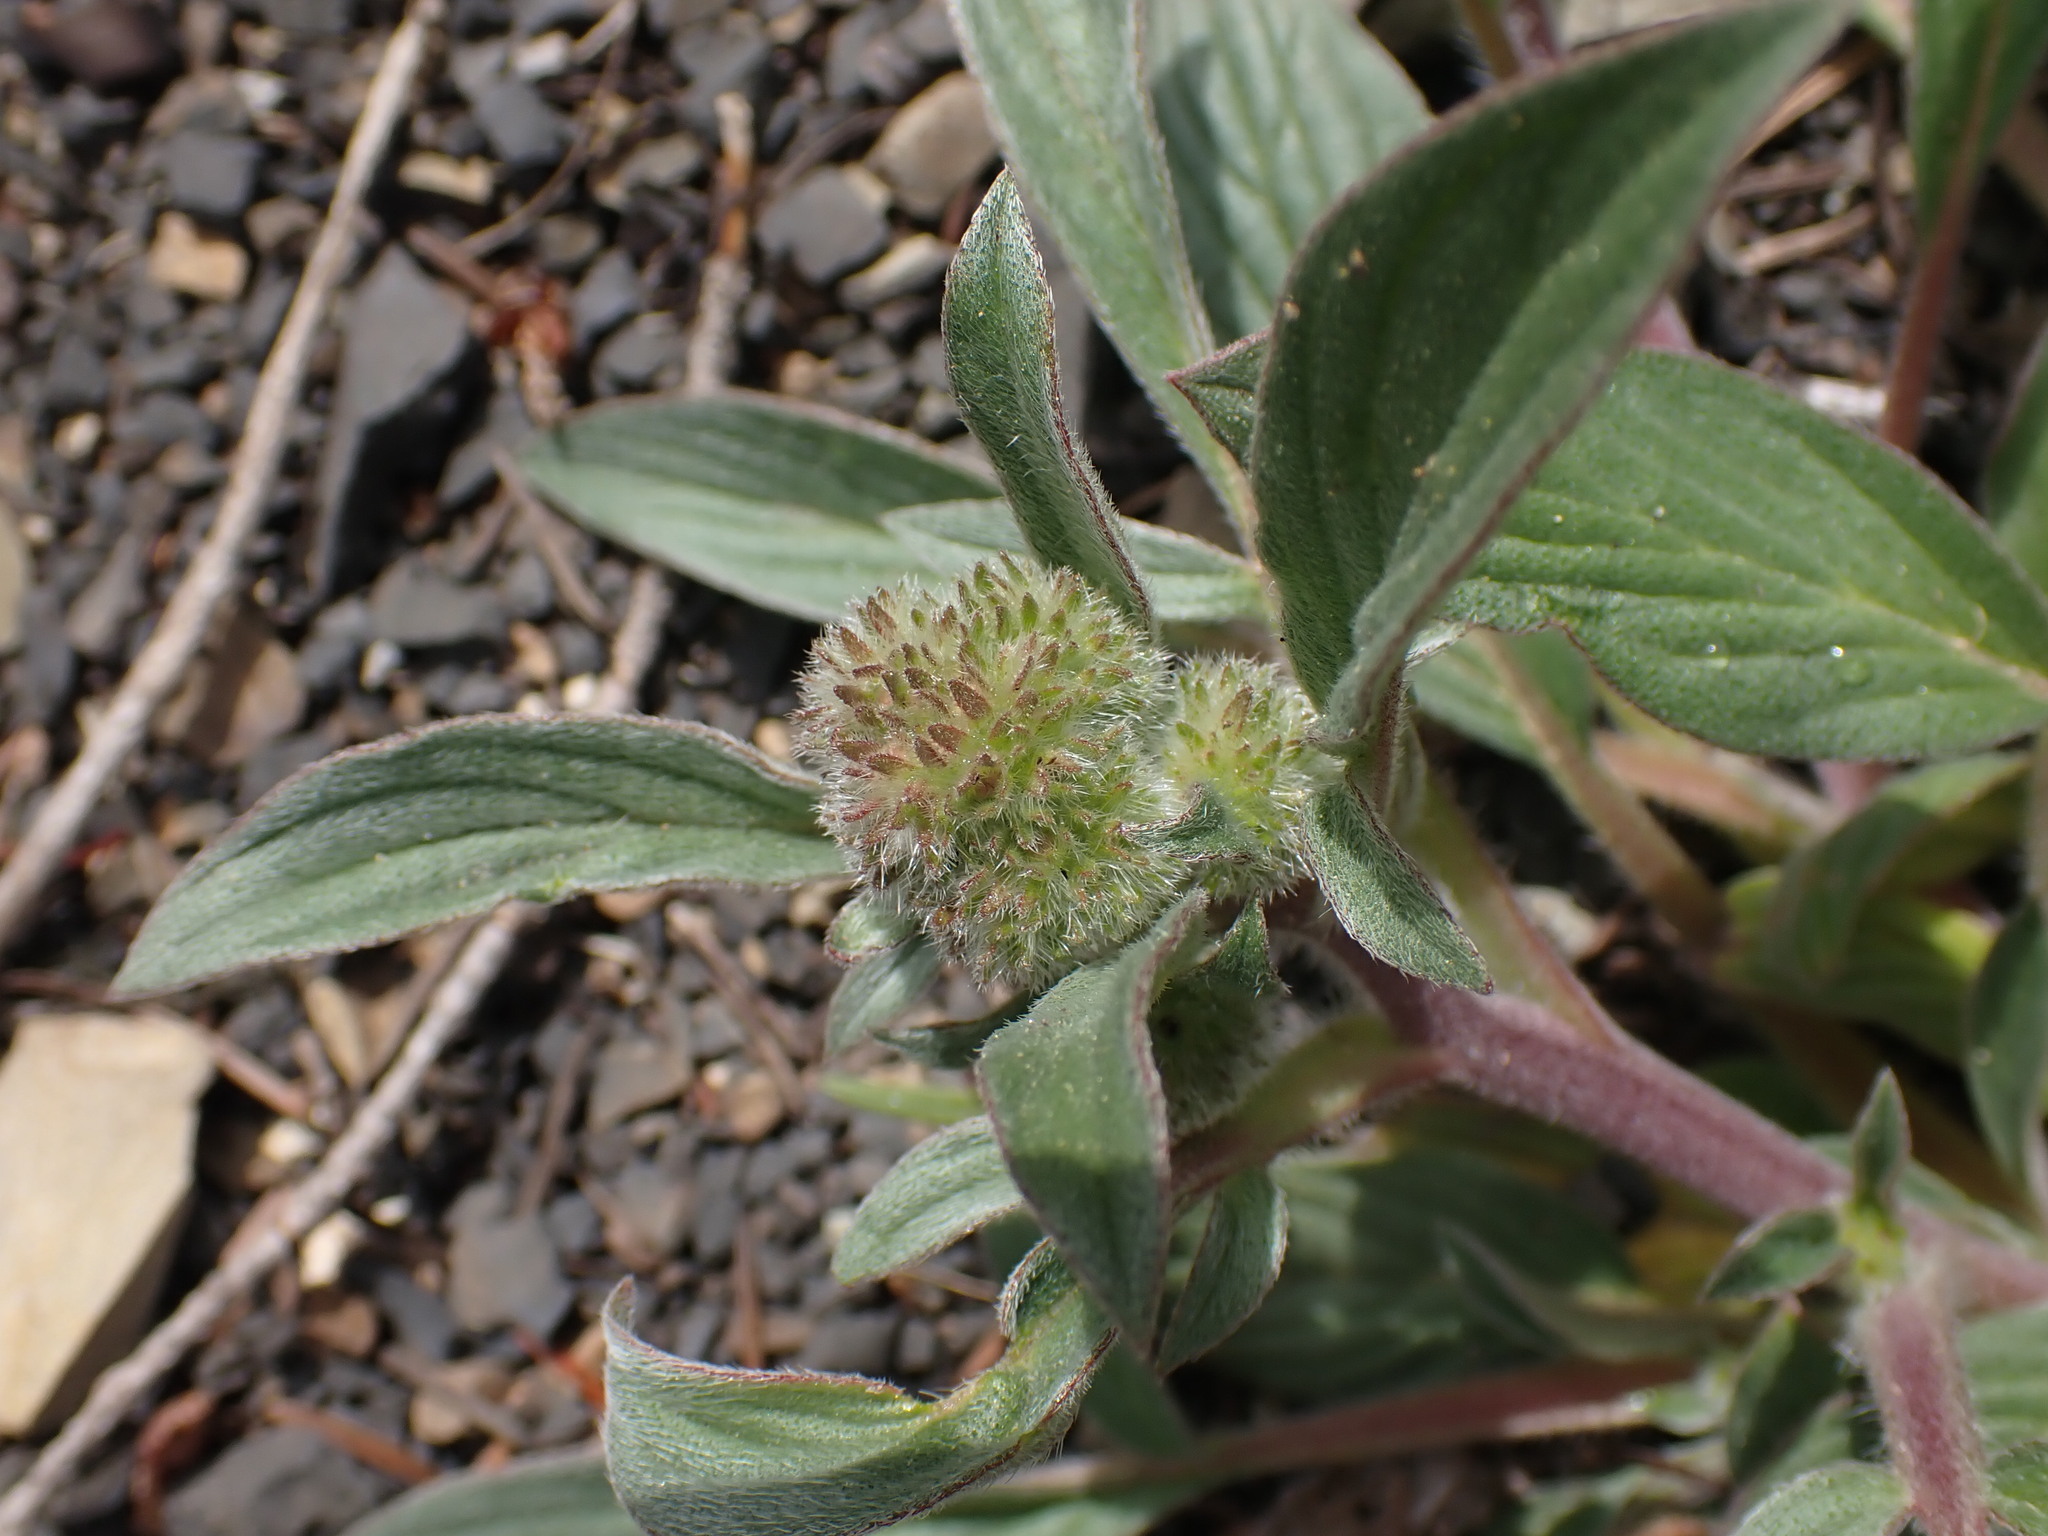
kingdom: Plantae
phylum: Tracheophyta
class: Magnoliopsida
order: Boraginales
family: Hydrophyllaceae
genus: Phacelia
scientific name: Phacelia hastata
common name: Silver-leaved phacelia
